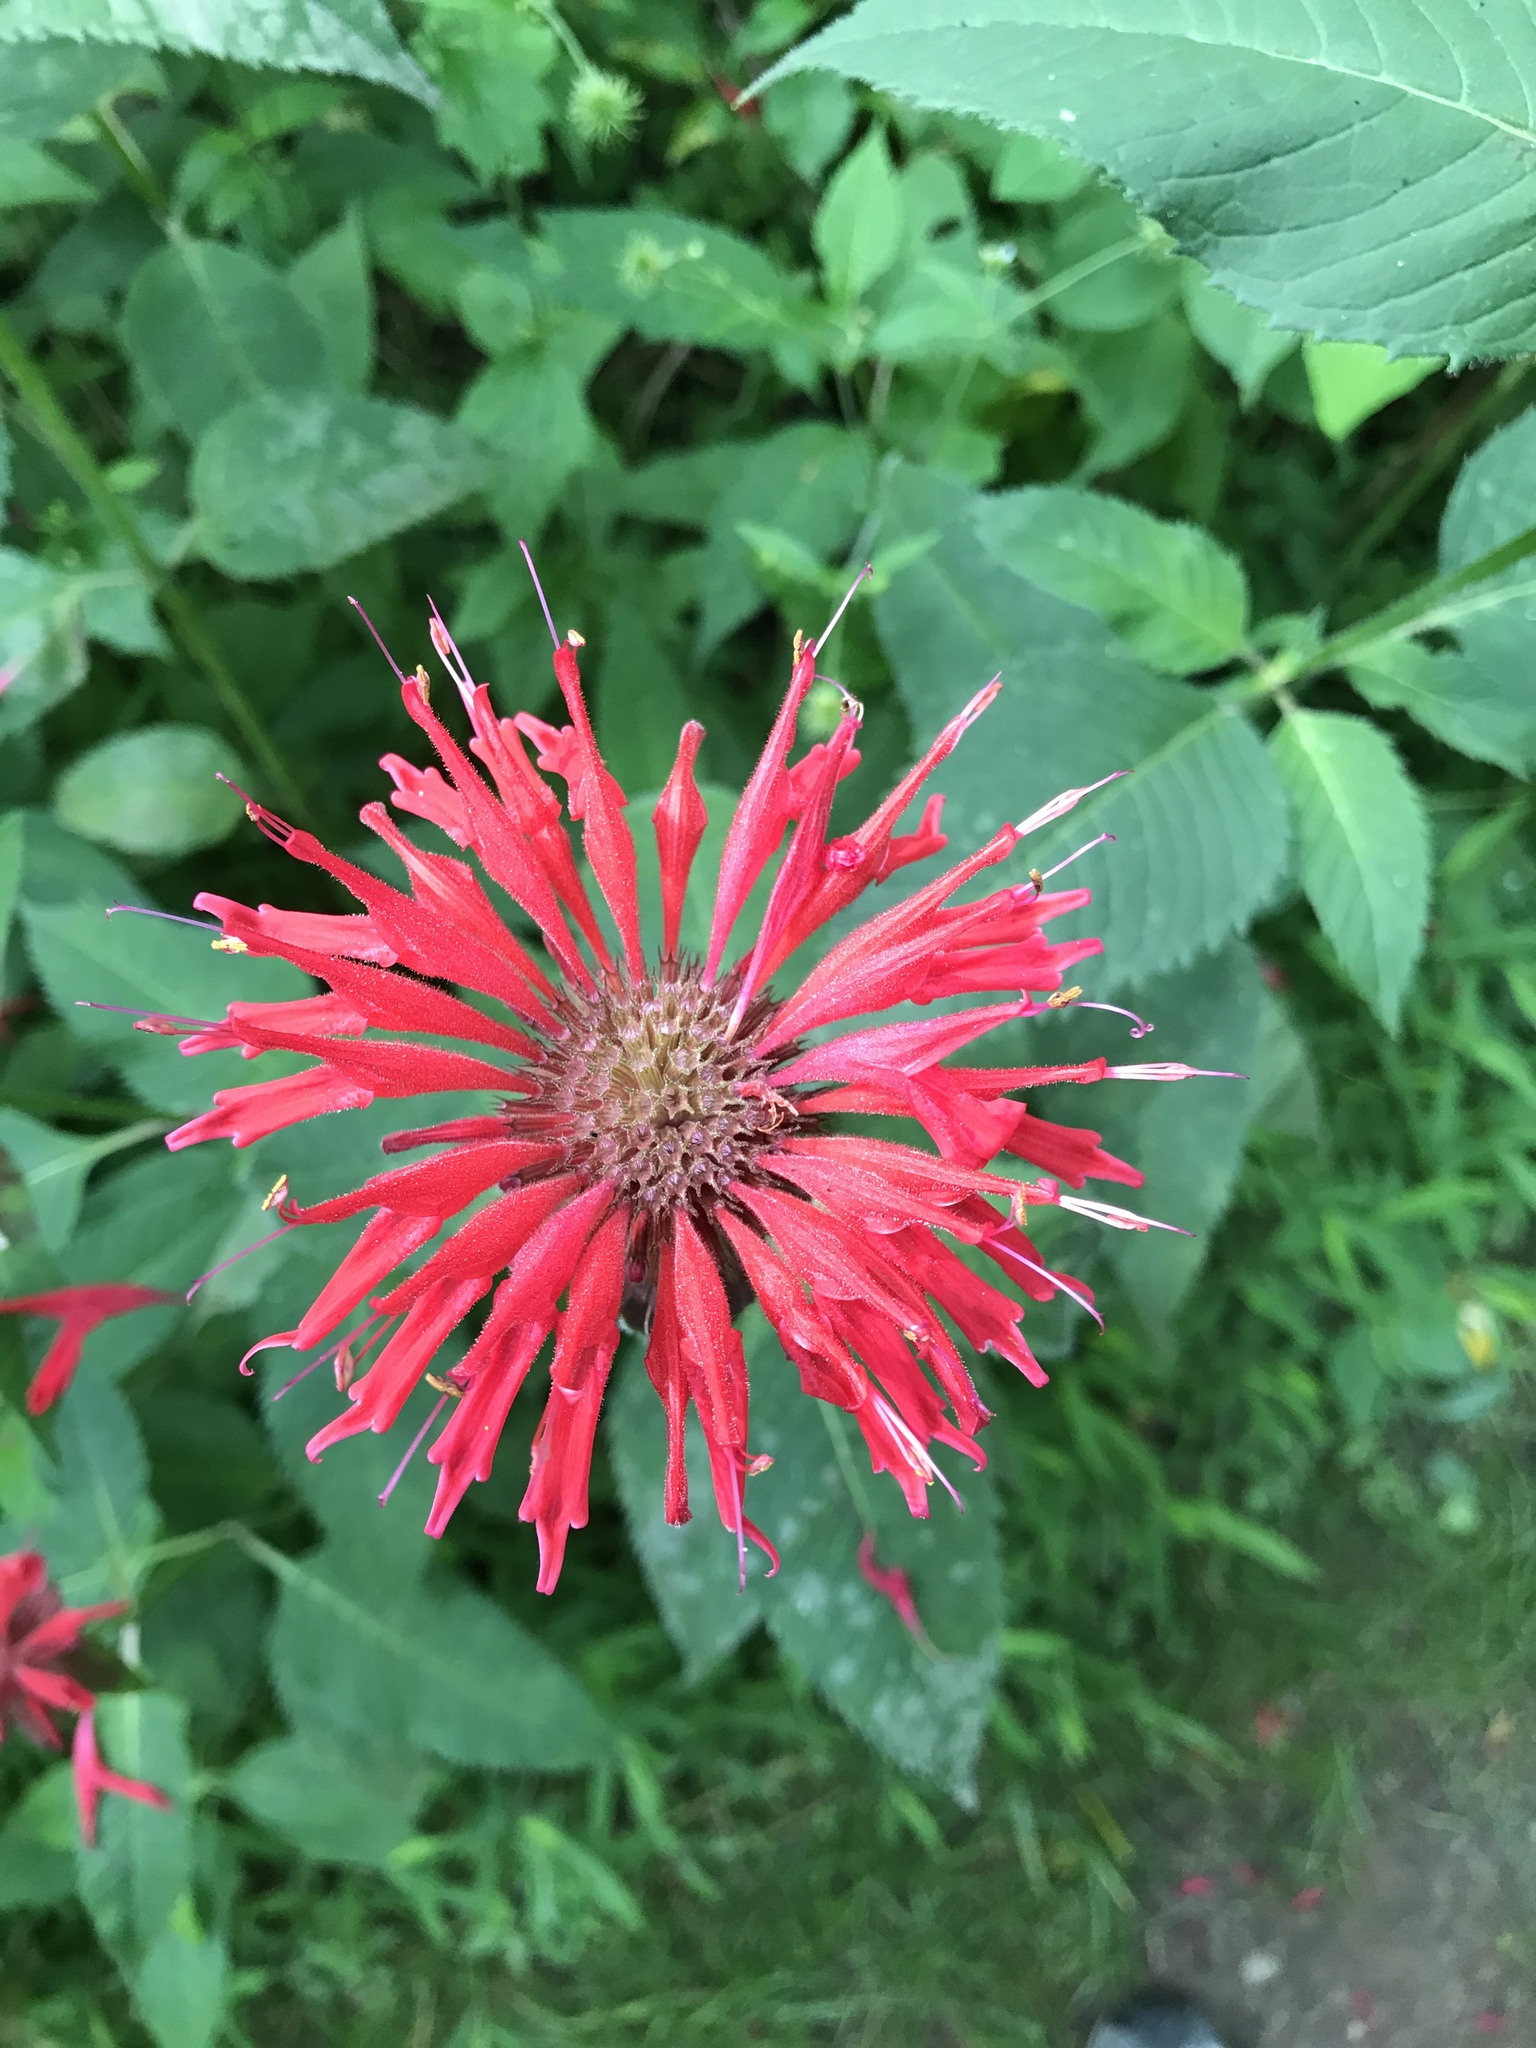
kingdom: Plantae
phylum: Tracheophyta
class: Magnoliopsida
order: Lamiales
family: Lamiaceae
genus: Monarda
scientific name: Monarda didyma
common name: Beebalm
